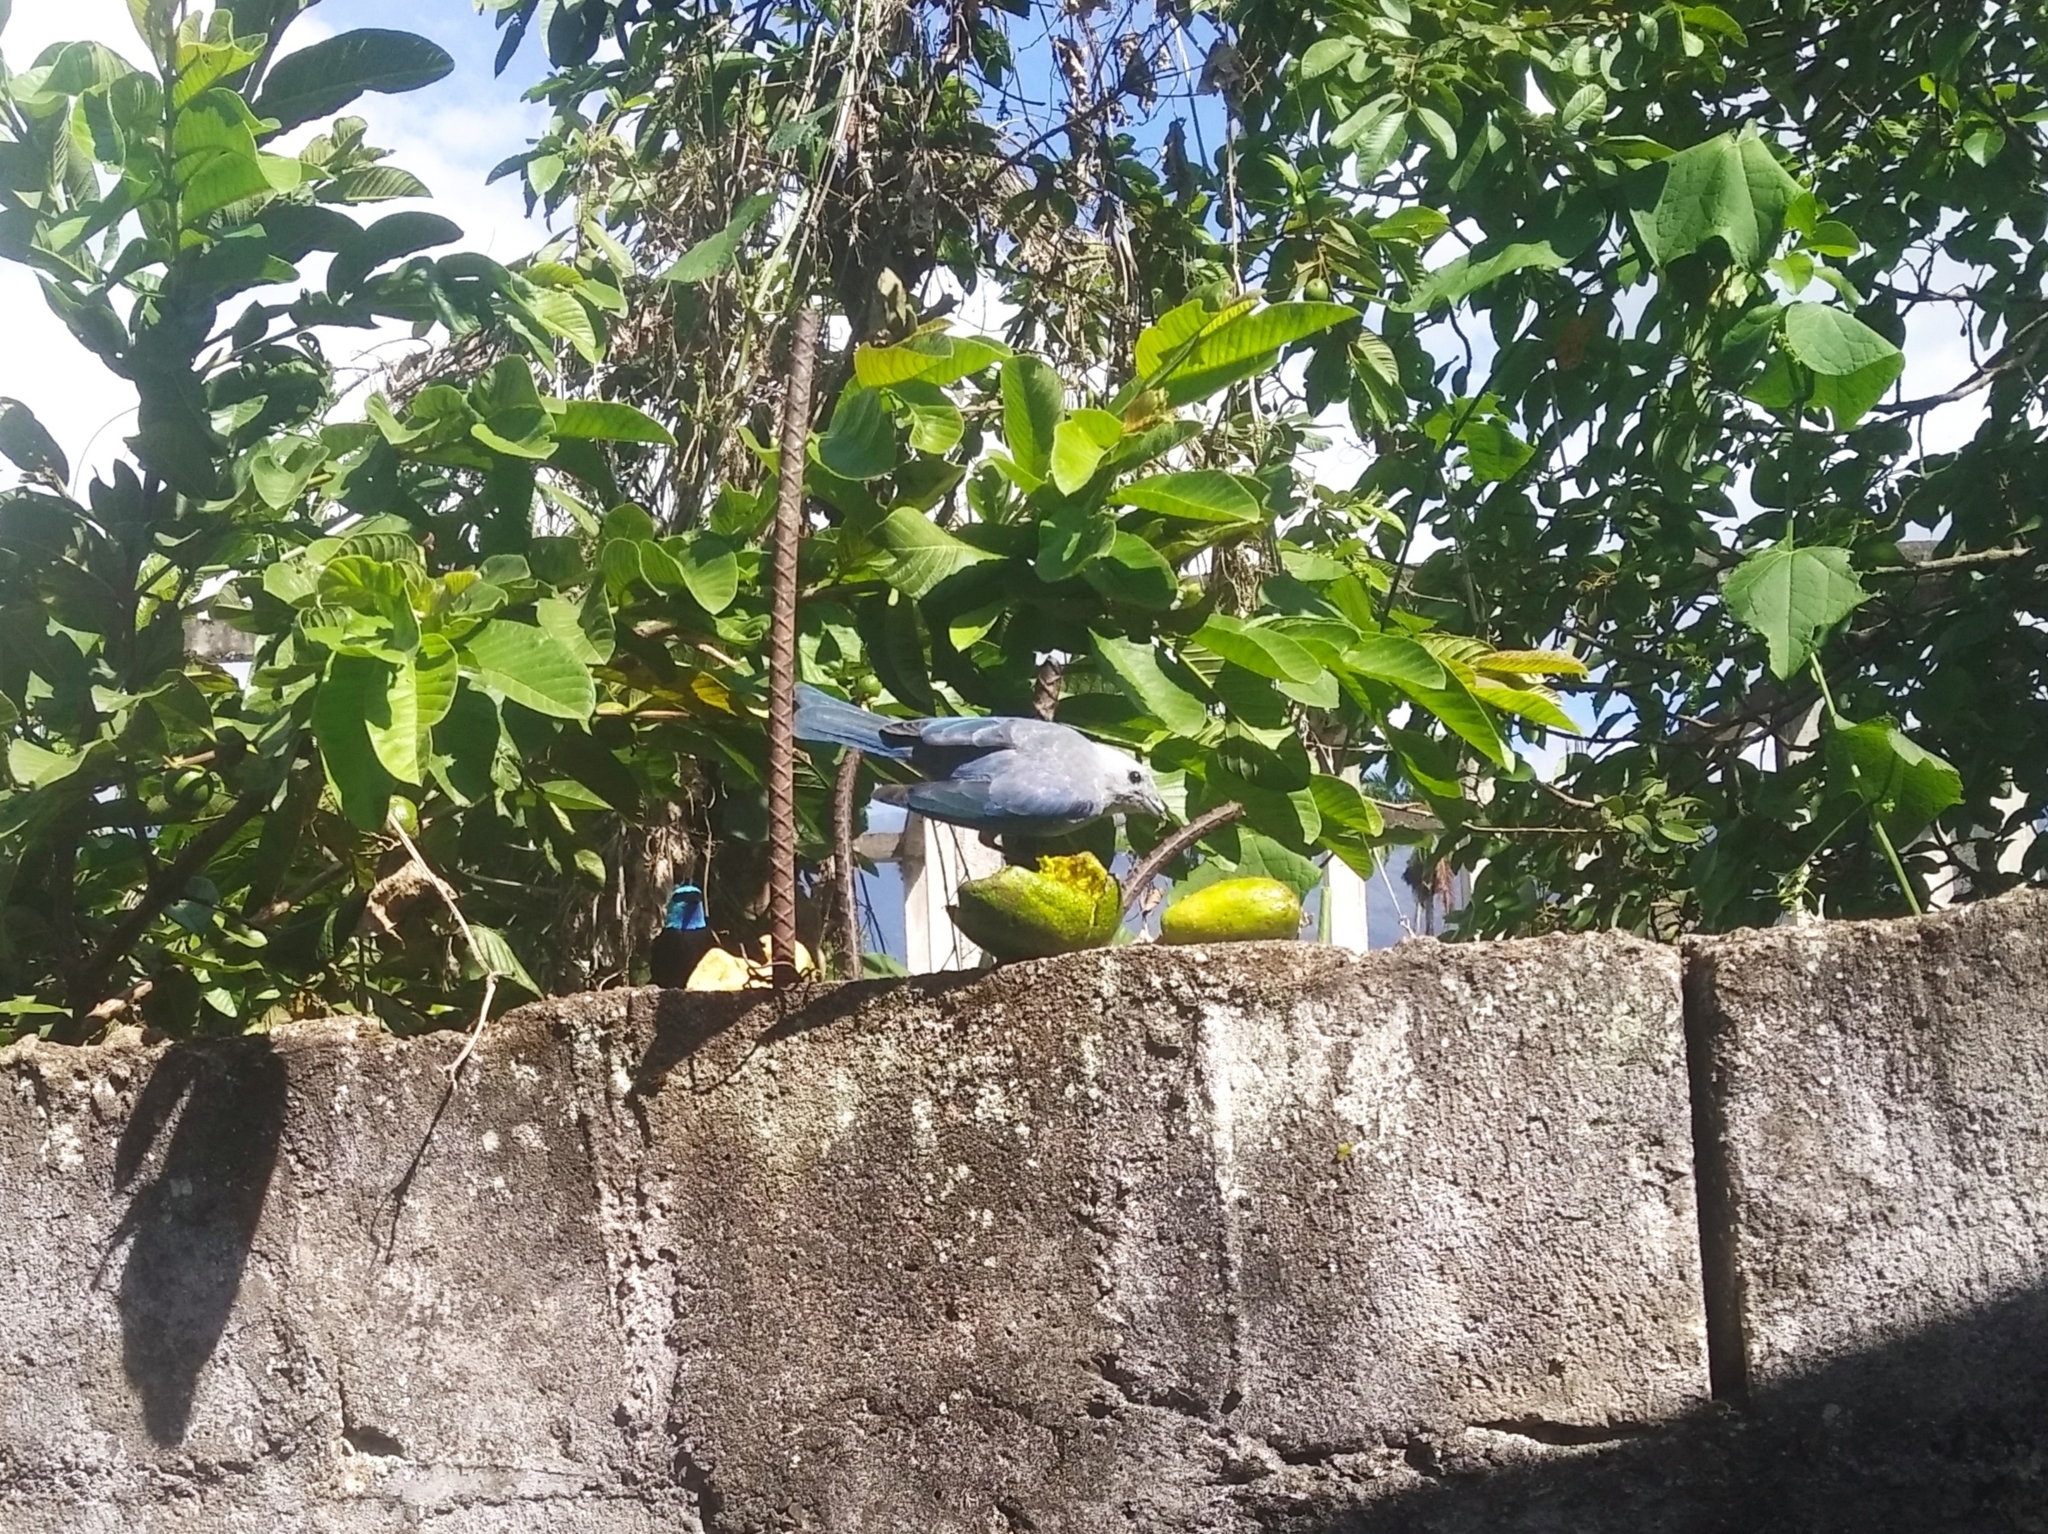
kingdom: Animalia
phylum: Chordata
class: Aves
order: Passeriformes
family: Thraupidae
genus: Thraupis
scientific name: Thraupis episcopus
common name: Blue-grey tanager
